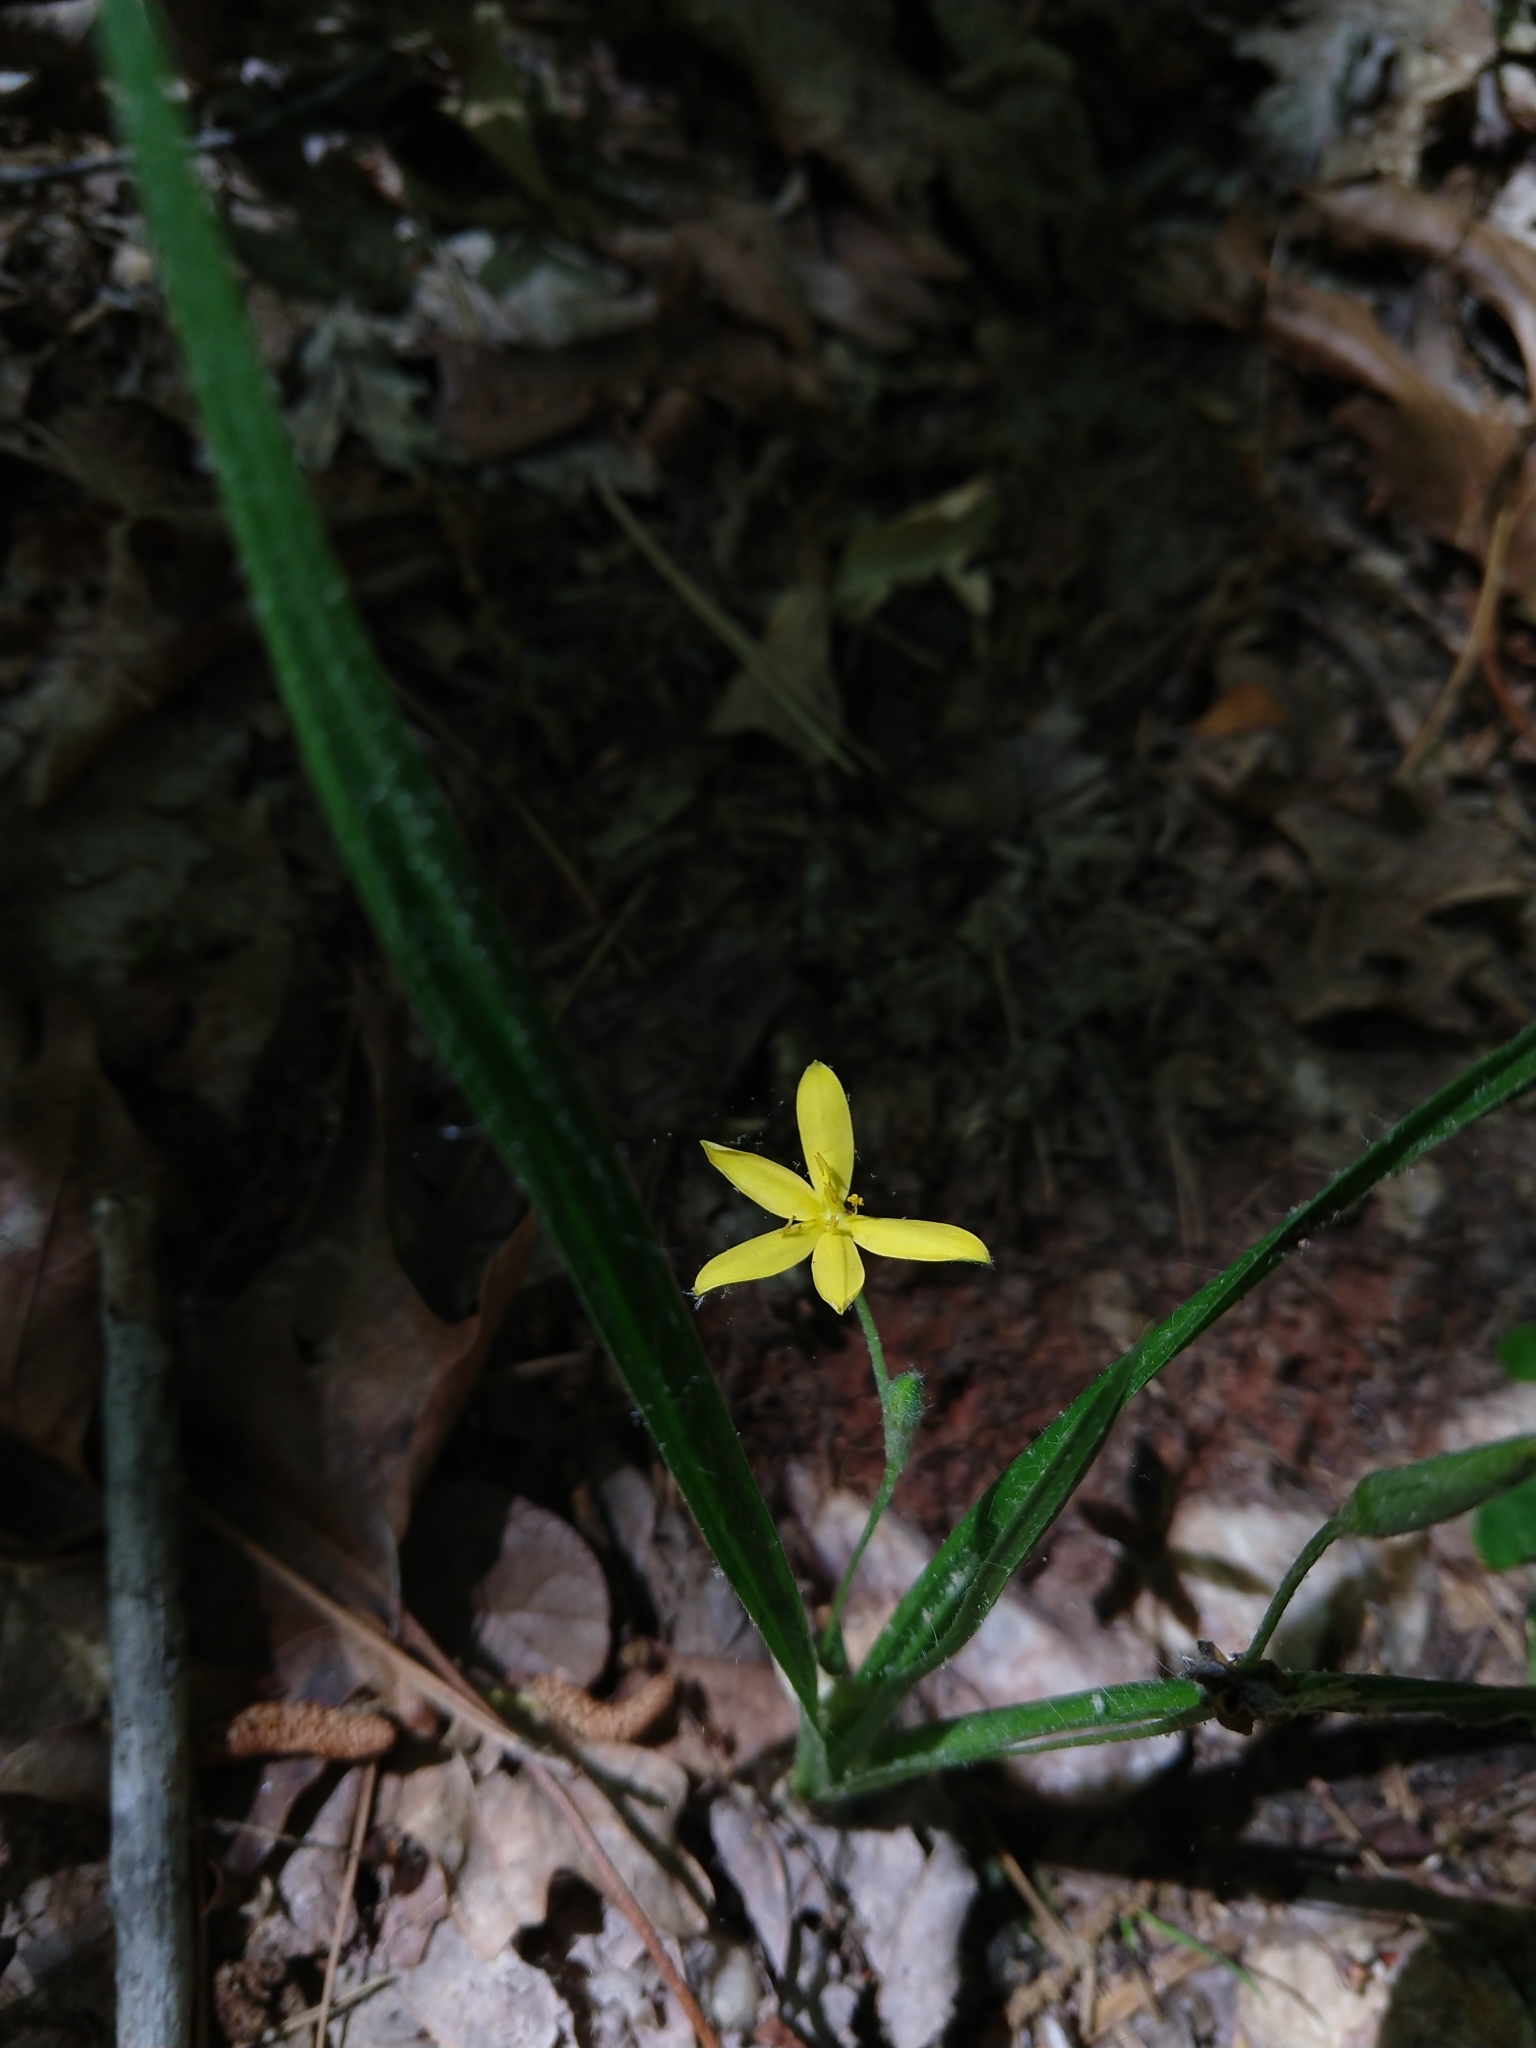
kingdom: Plantae
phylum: Tracheophyta
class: Liliopsida
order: Asparagales
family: Hypoxidaceae
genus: Hypoxis
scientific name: Hypoxis hirsuta
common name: Common goldstar
